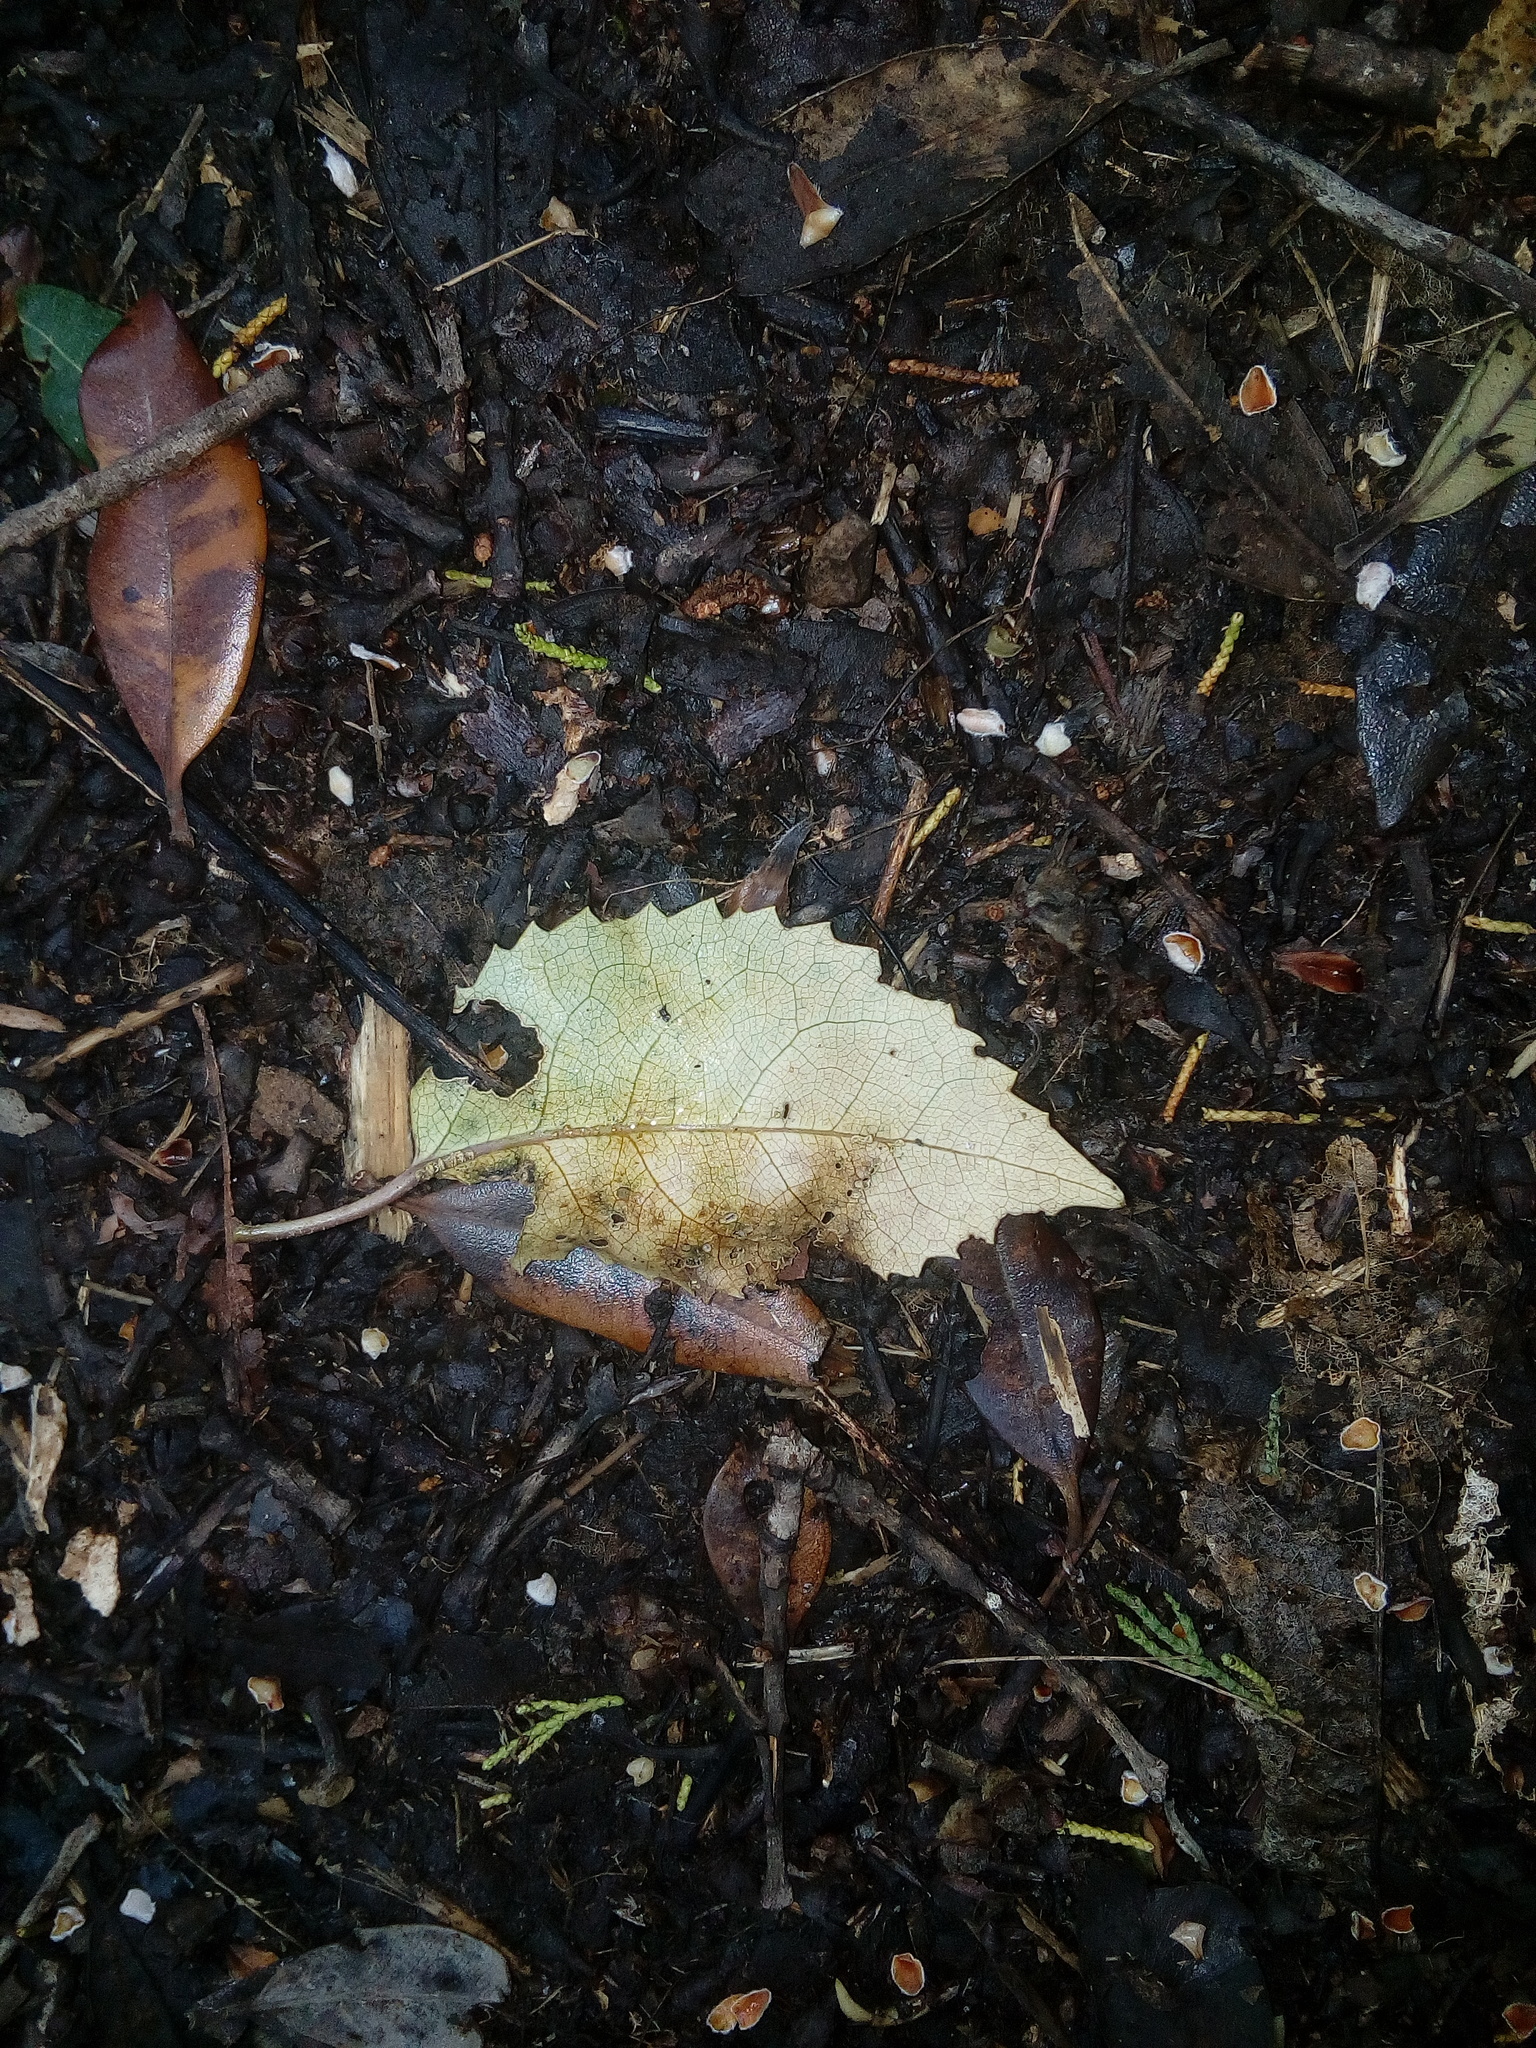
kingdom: Plantae
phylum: Tracheophyta
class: Magnoliopsida
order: Malvales
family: Malvaceae
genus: Hoheria
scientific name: Hoheria populnea
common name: Lacebark
